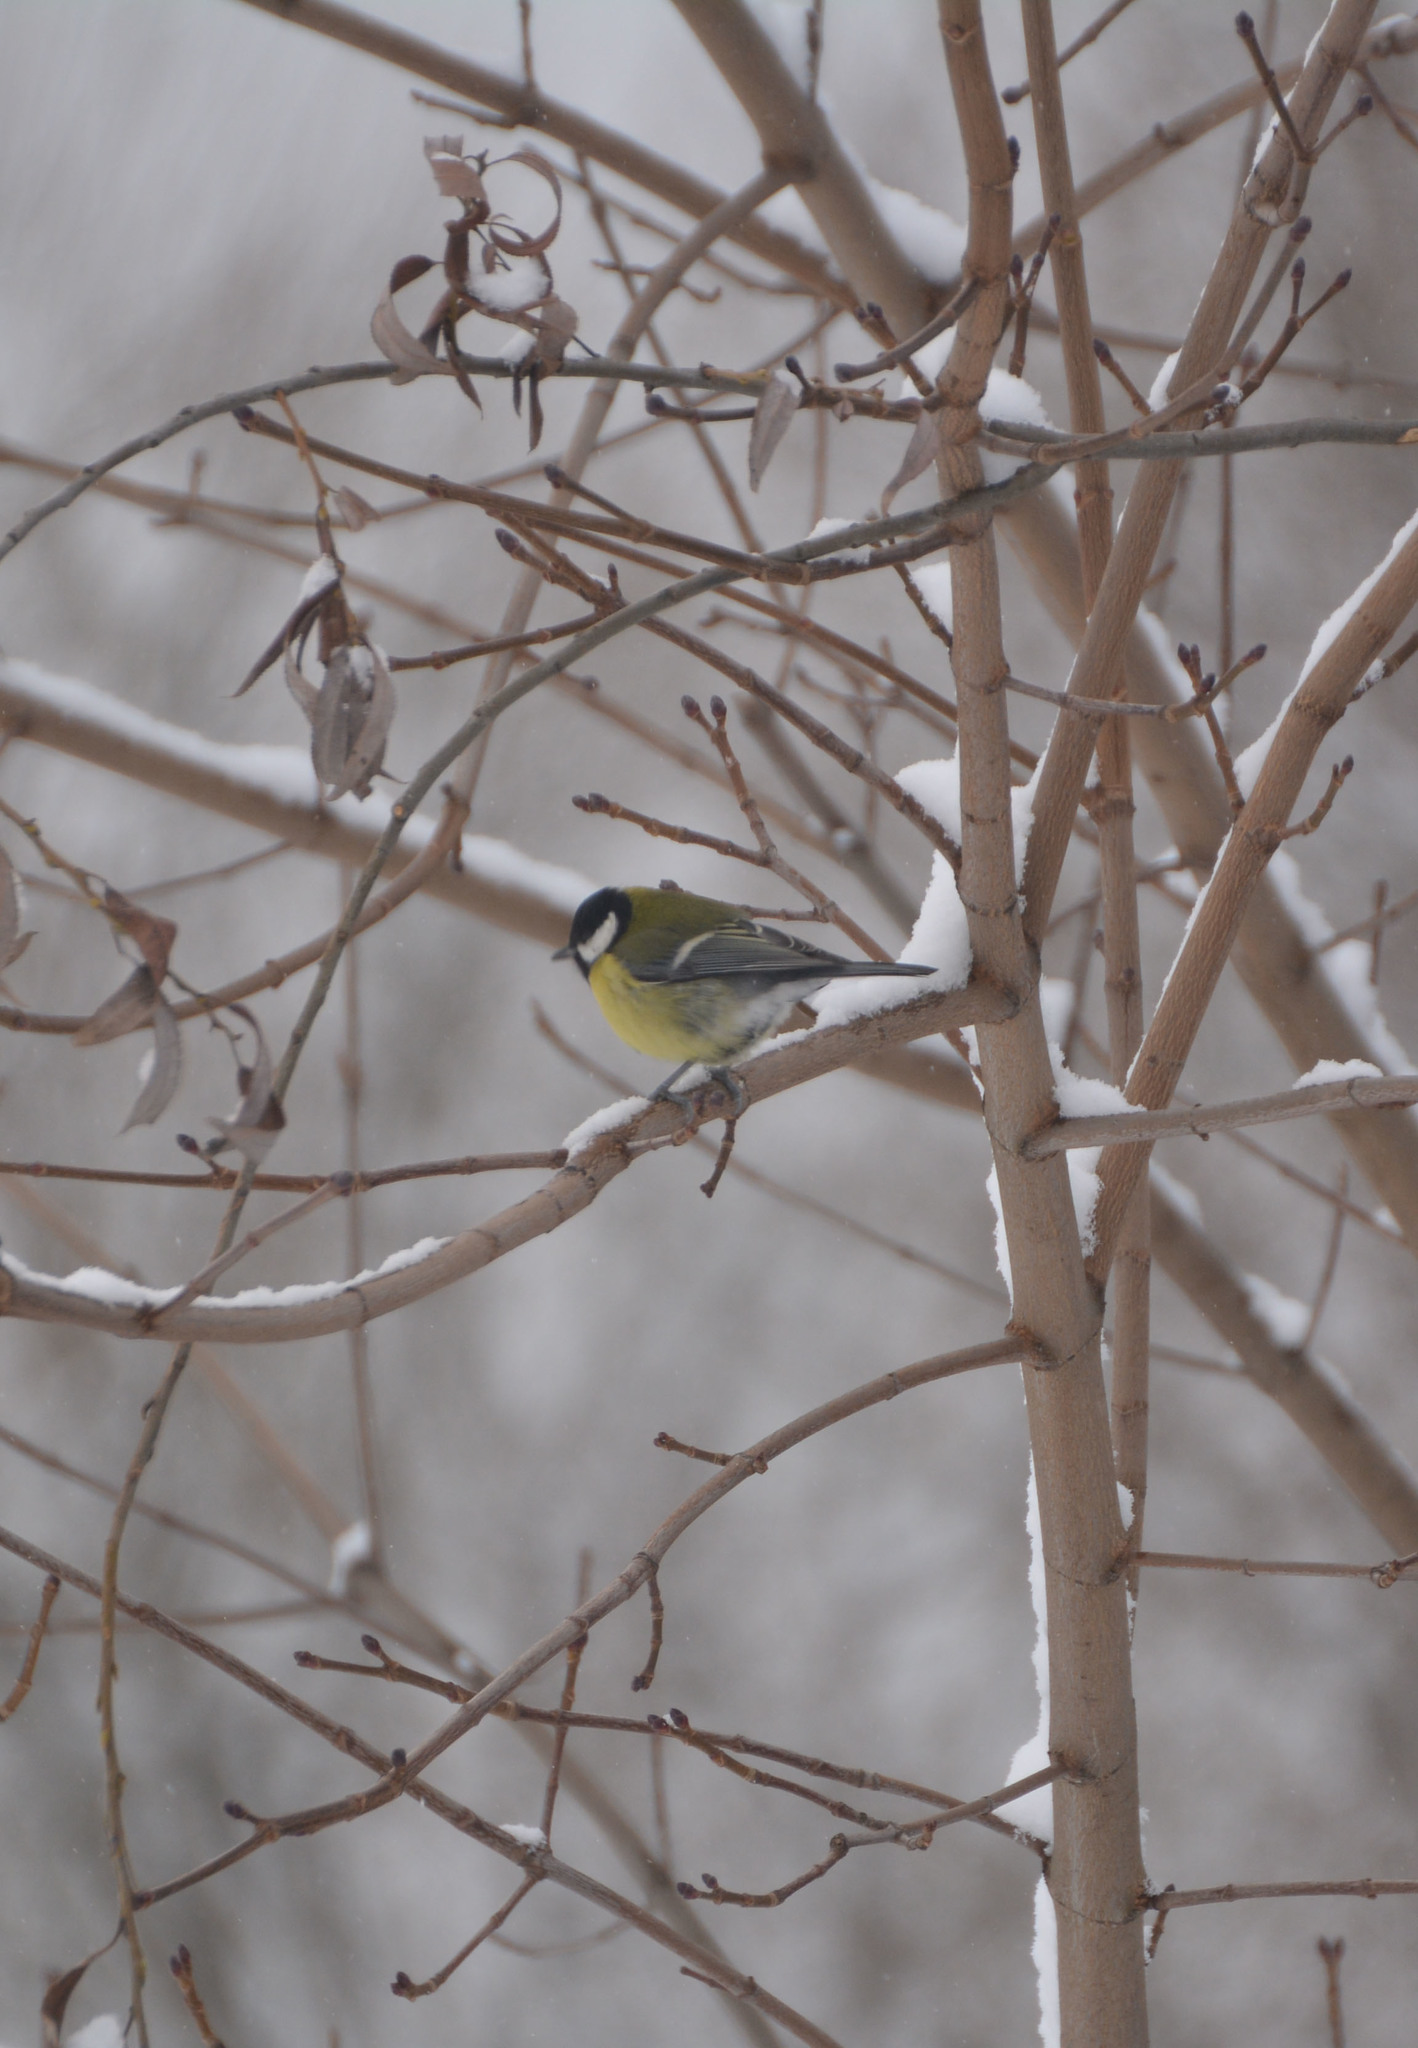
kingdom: Animalia
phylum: Chordata
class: Aves
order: Passeriformes
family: Paridae
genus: Parus
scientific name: Parus major
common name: Great tit
